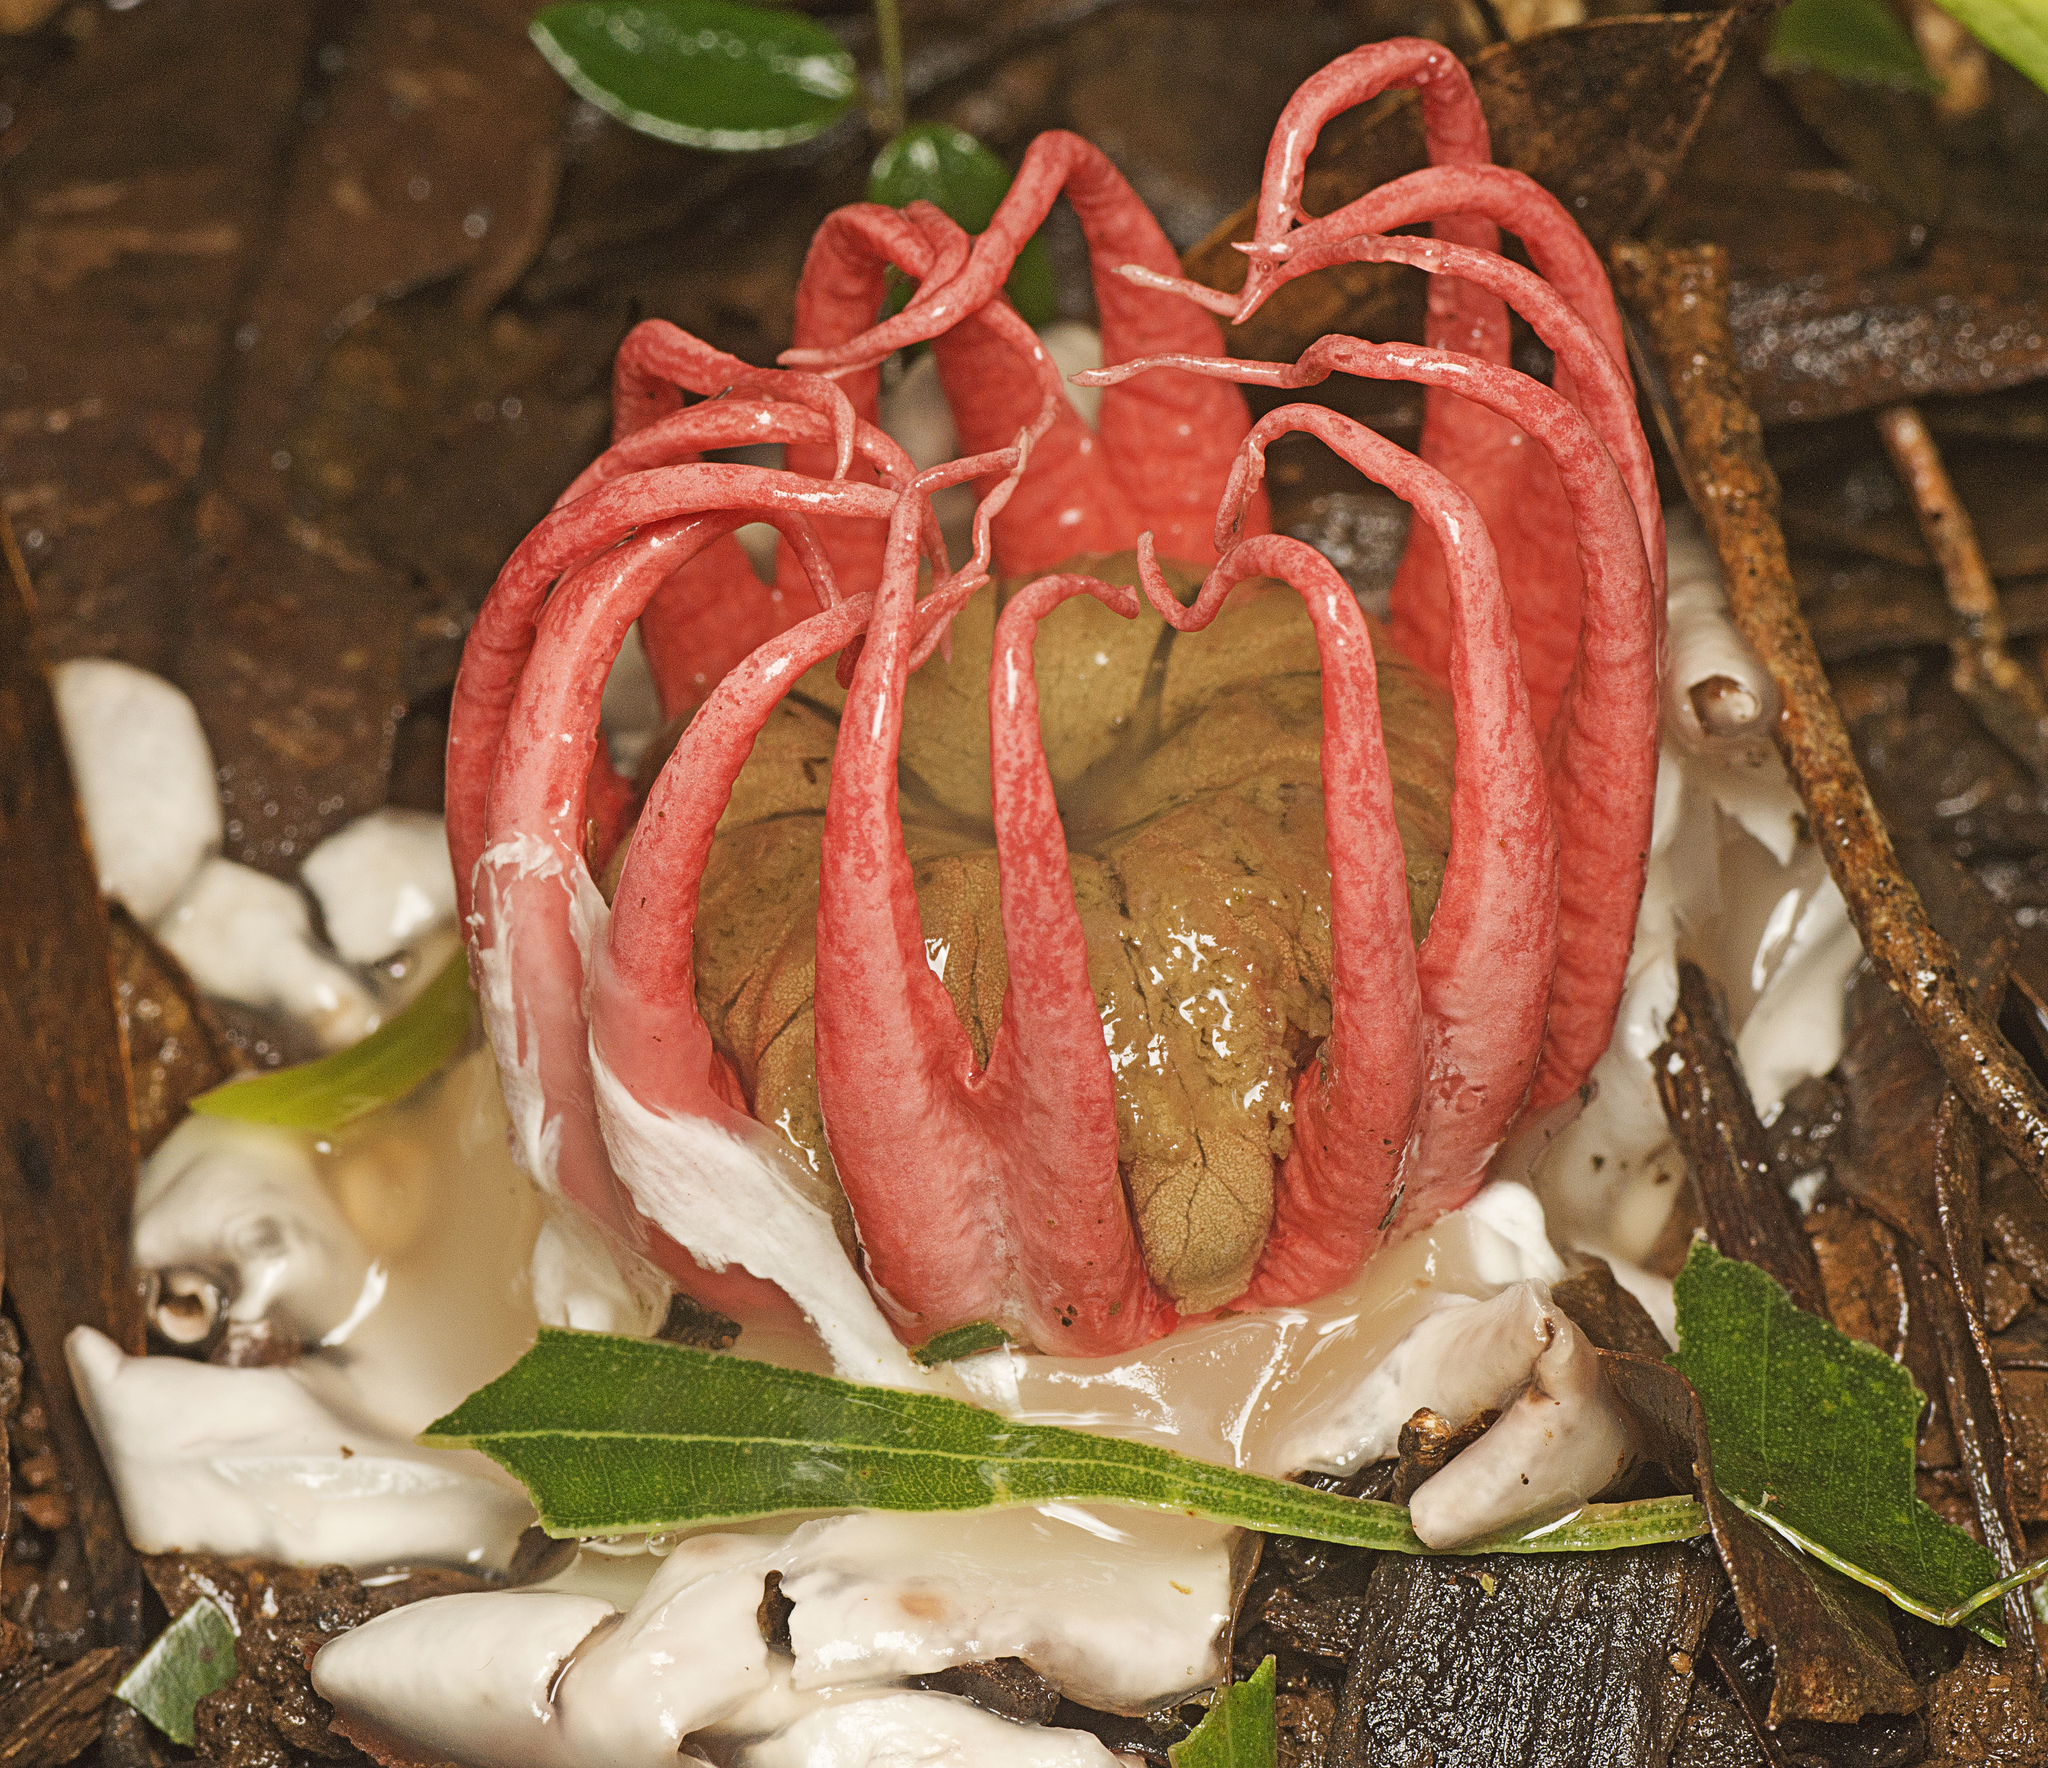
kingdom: Fungi
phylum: Basidiomycota
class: Agaricomycetes
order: Phallales
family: Phallaceae
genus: Aseroe
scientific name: Aseroe rubra
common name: Starfish fungus
